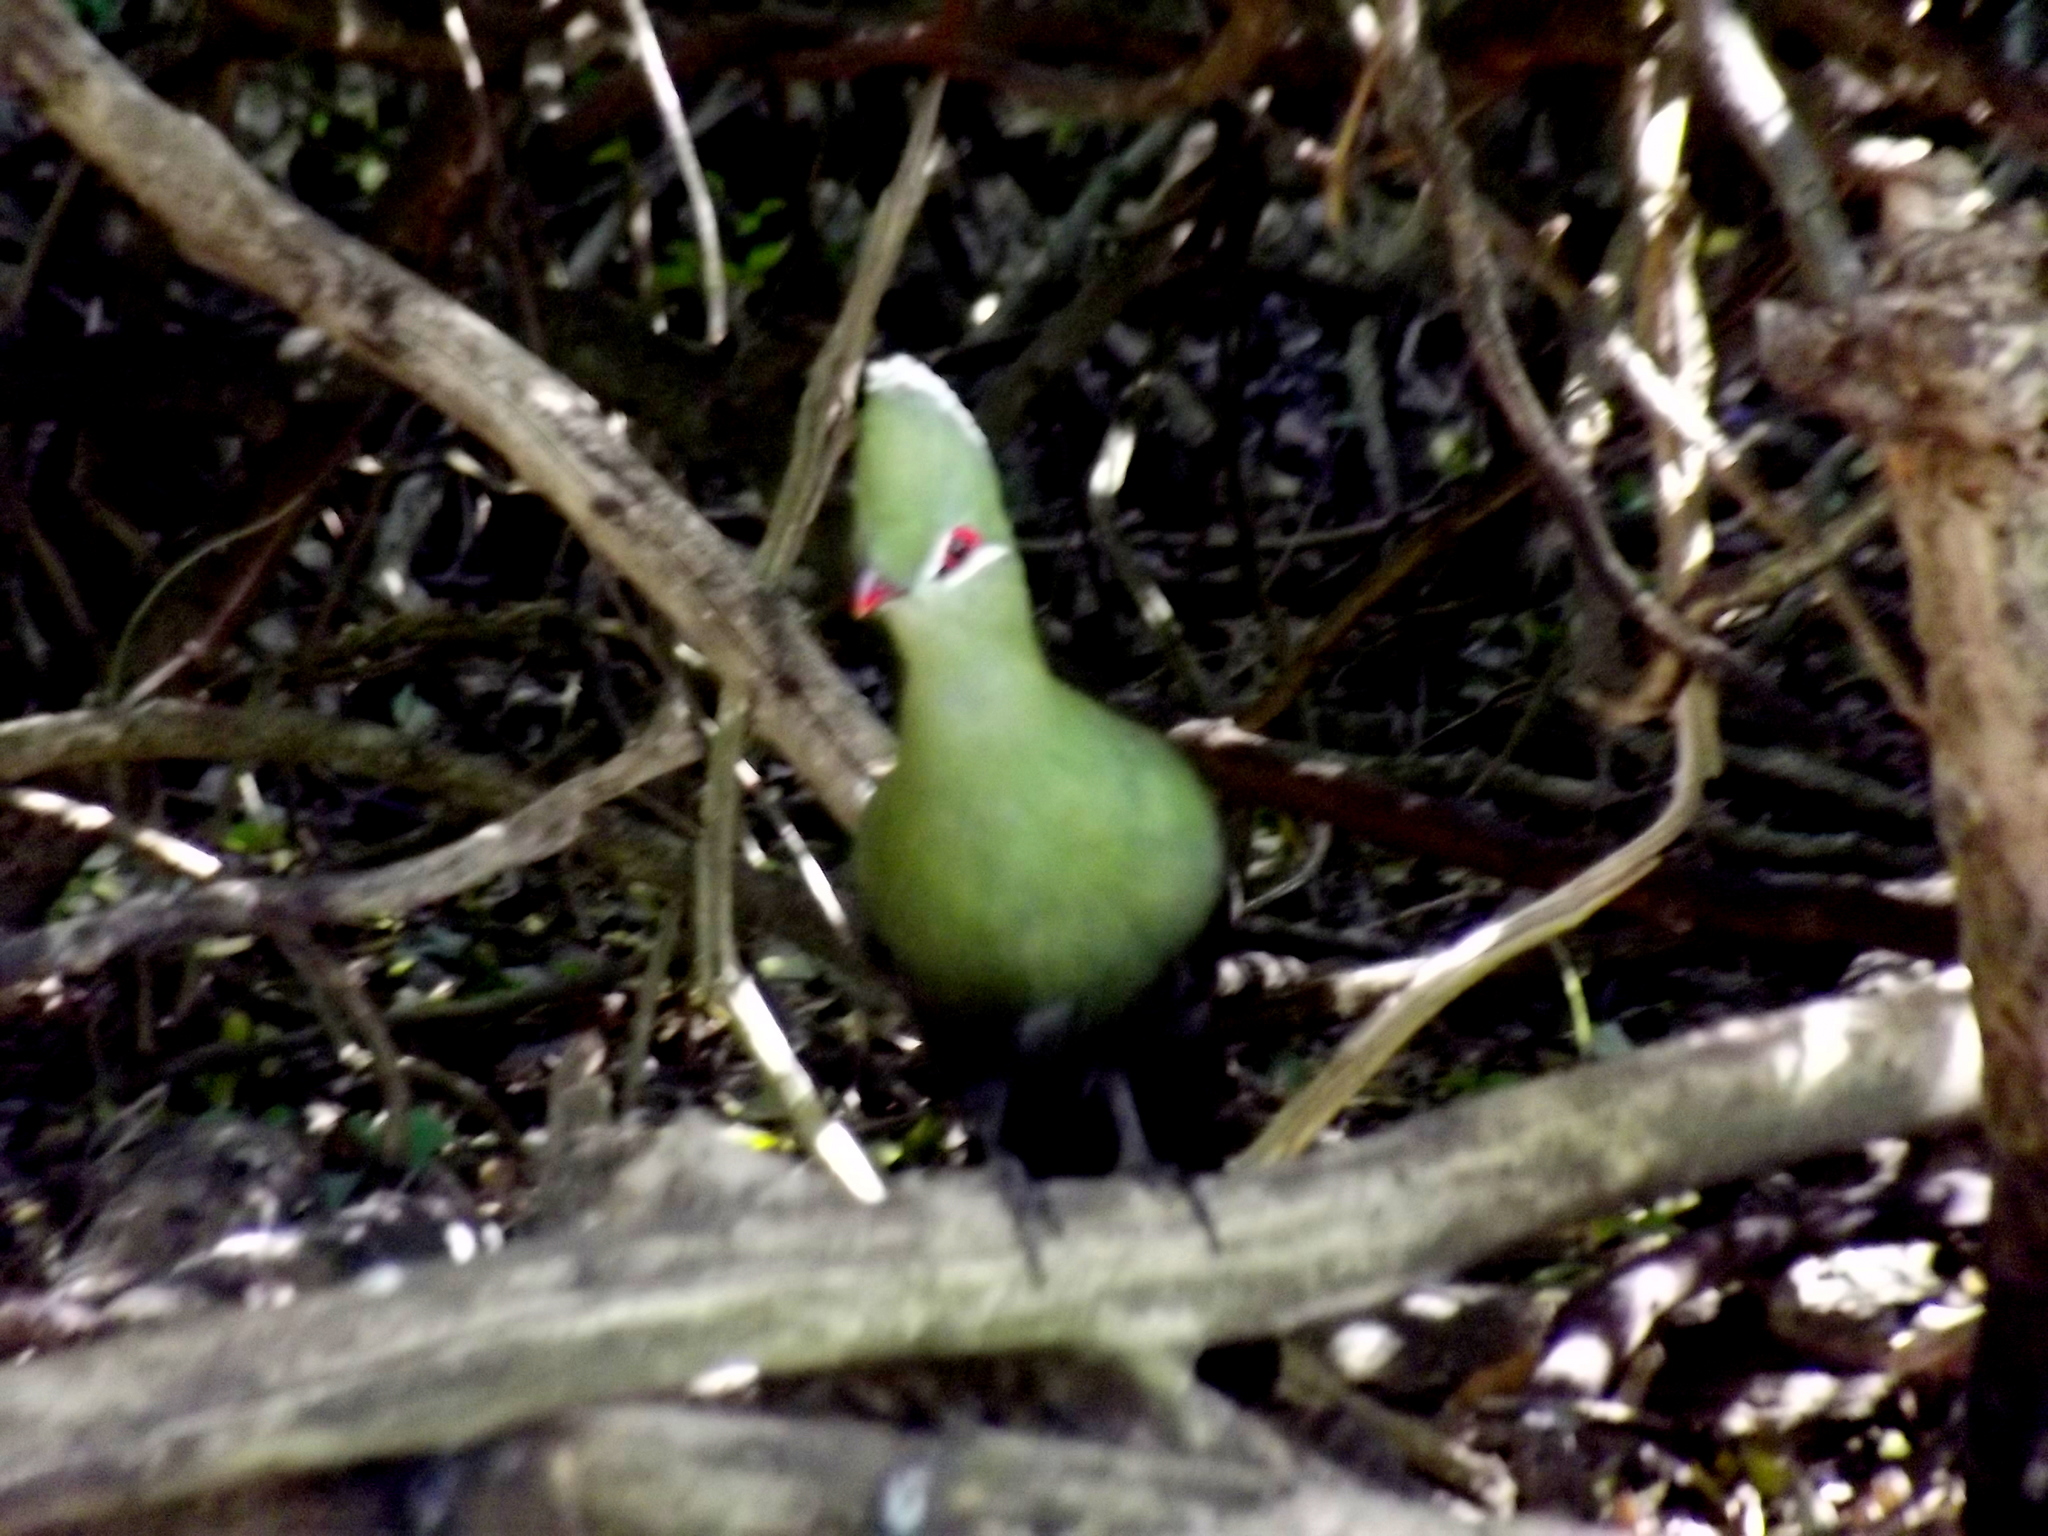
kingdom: Animalia
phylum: Chordata
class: Aves
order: Musophagiformes
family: Musophagidae
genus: Tauraco
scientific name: Tauraco corythaix
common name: Knysna turaco
